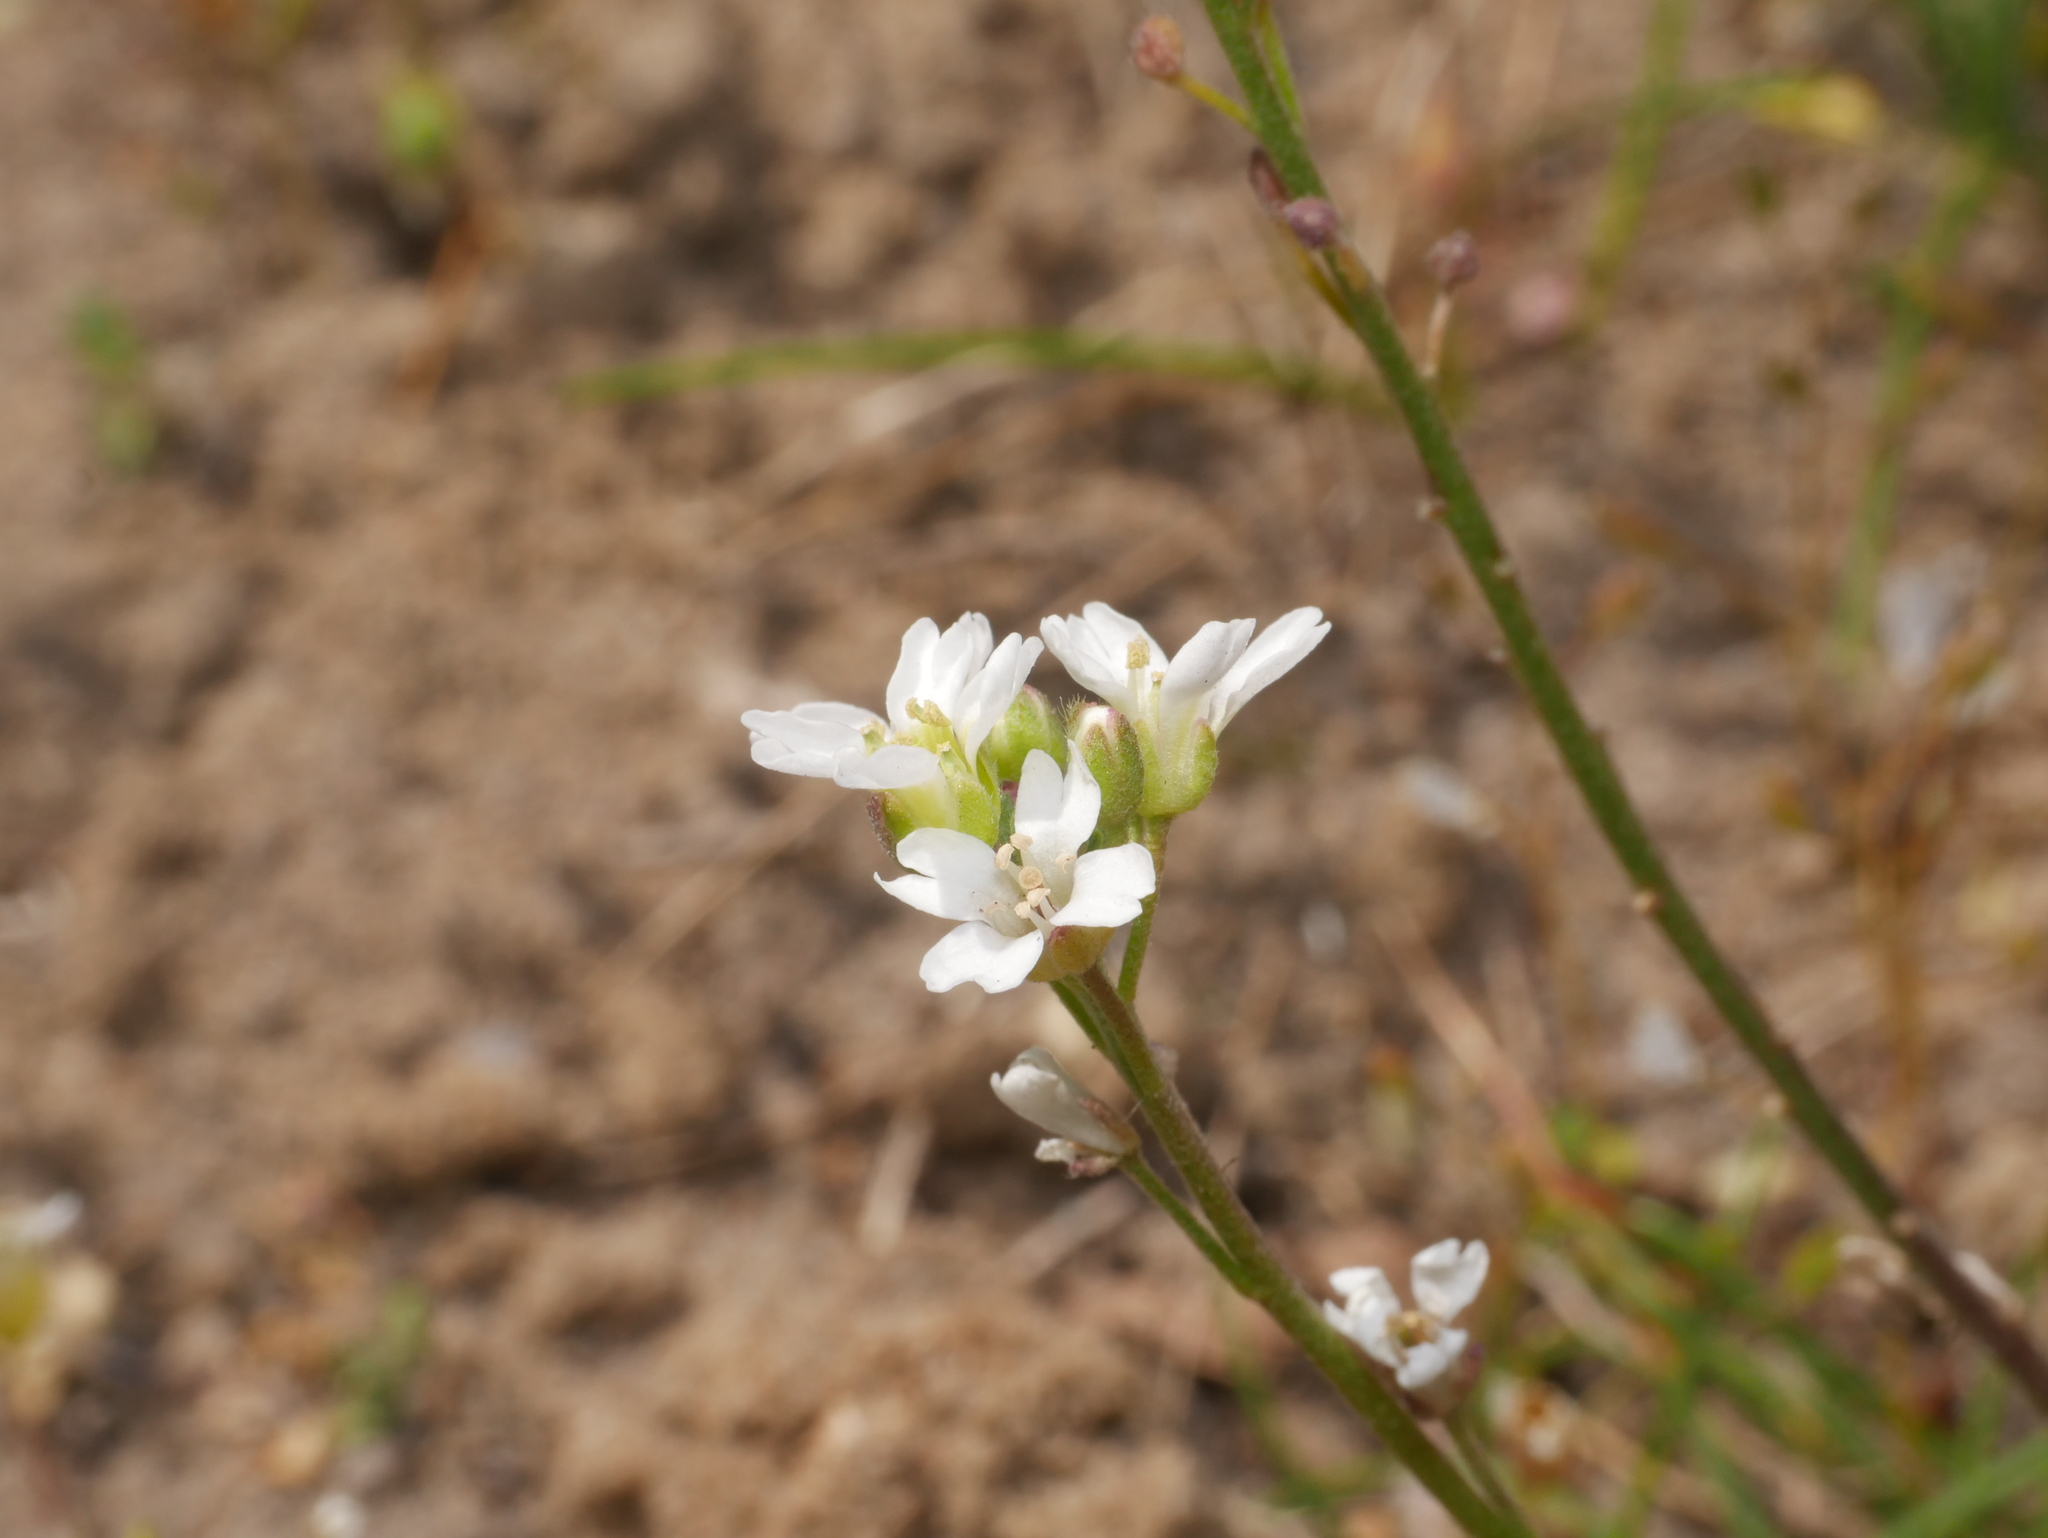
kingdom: Plantae
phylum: Tracheophyta
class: Magnoliopsida
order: Brassicales
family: Brassicaceae
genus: Berteroa
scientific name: Berteroa incana
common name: Hoary alison
